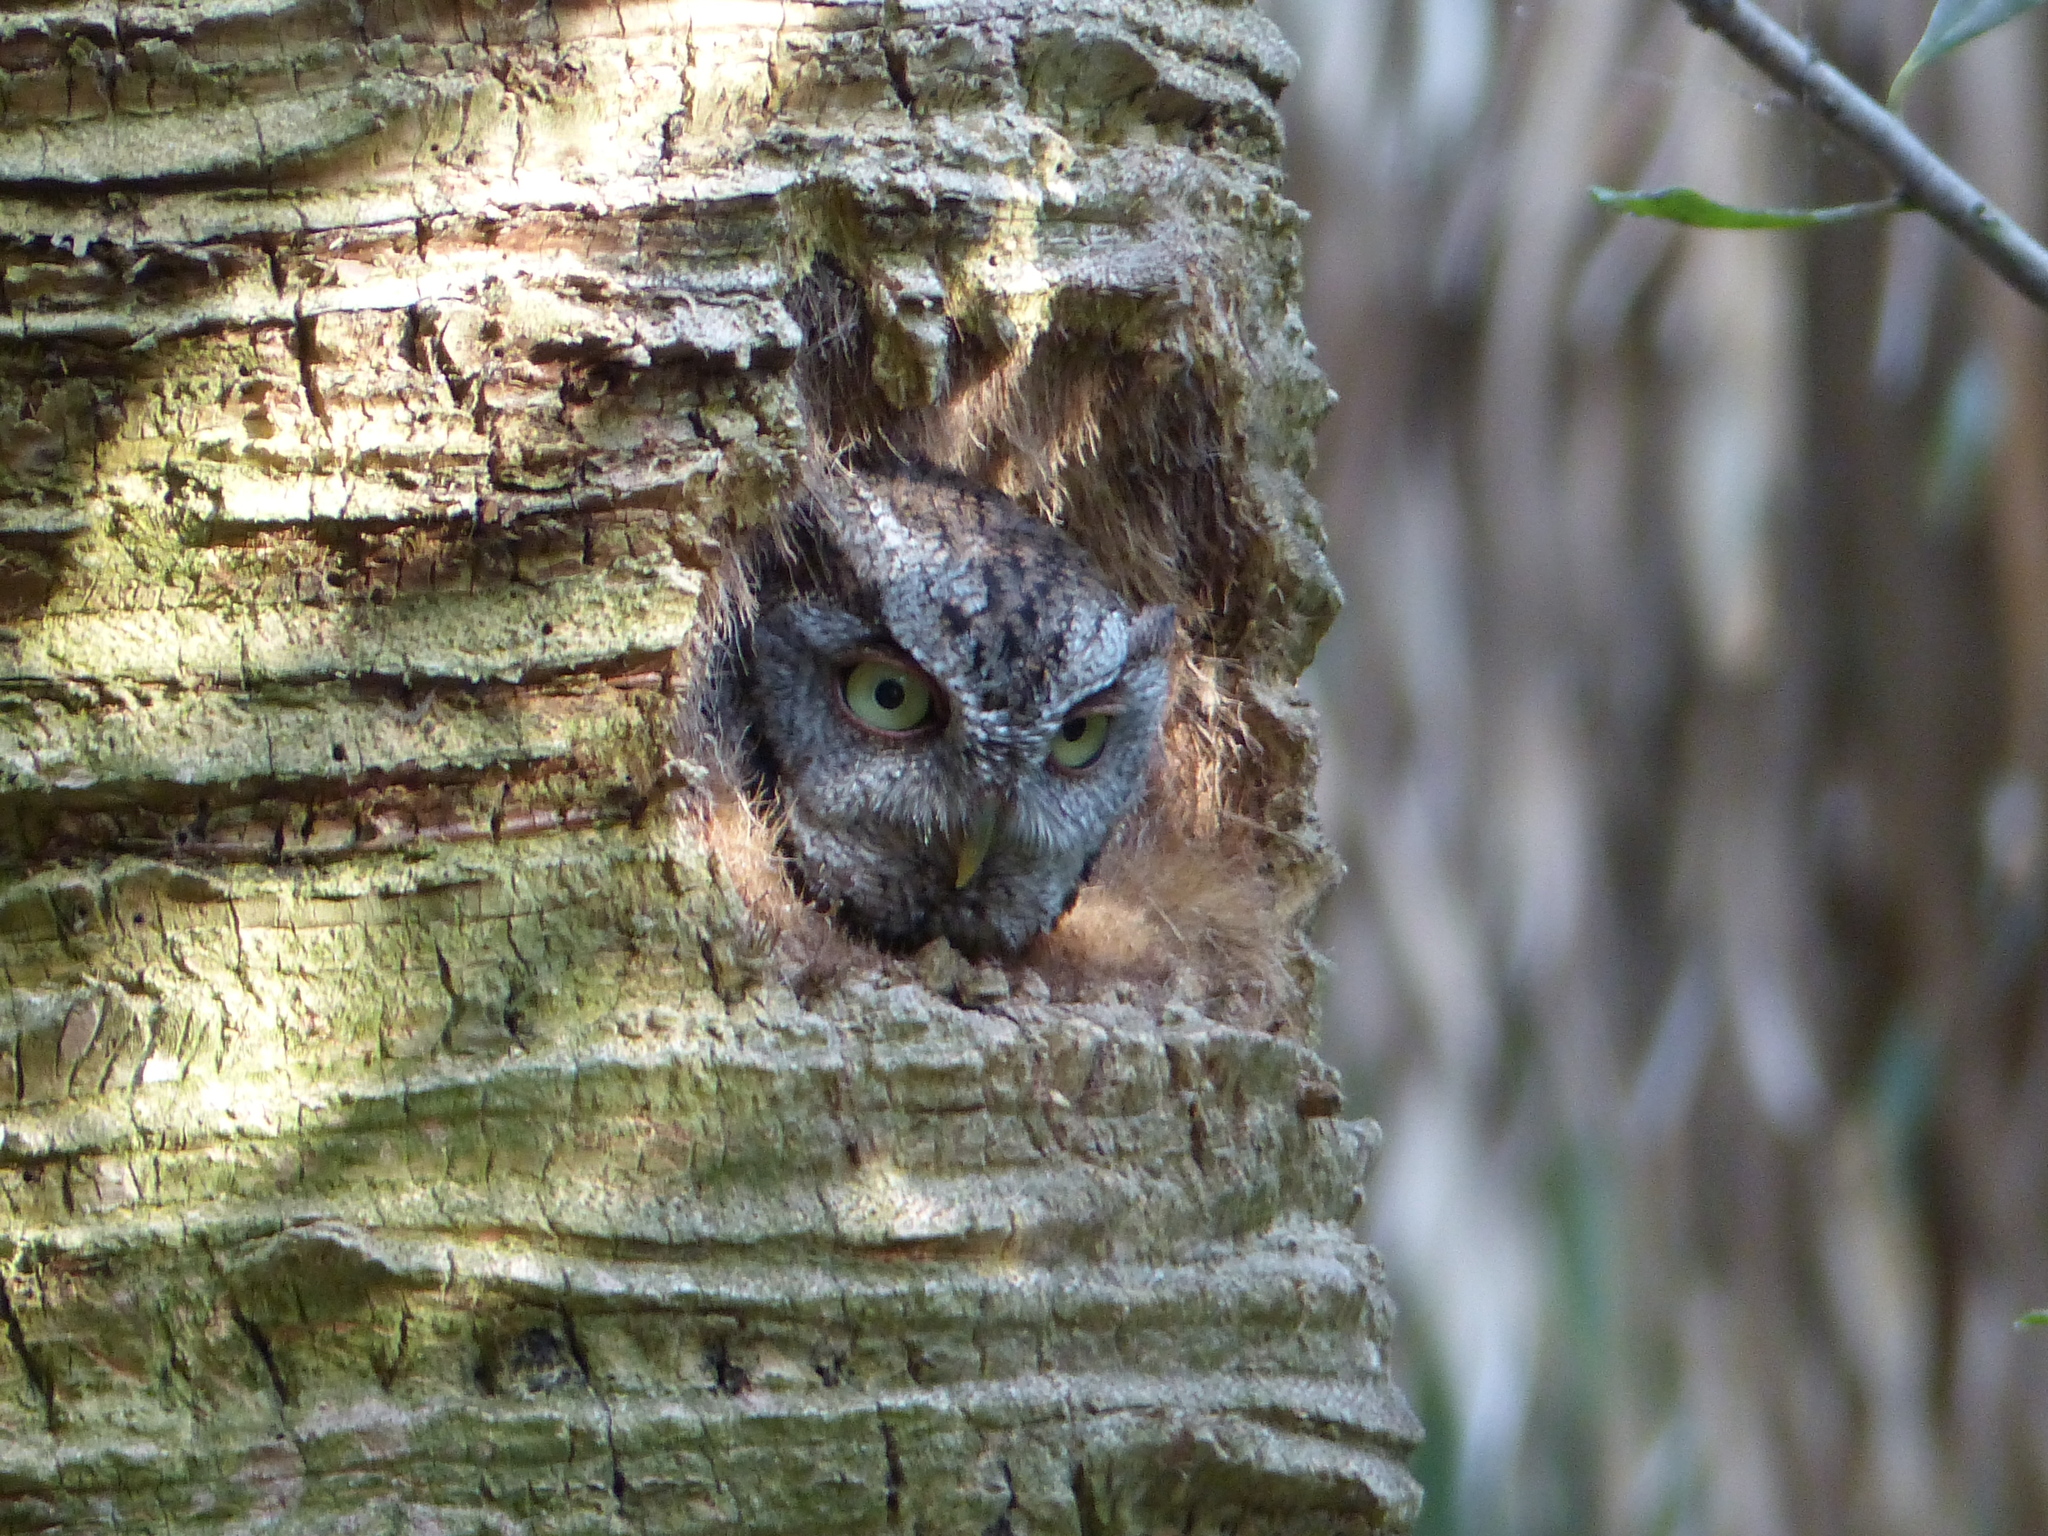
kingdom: Animalia
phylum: Chordata
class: Aves
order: Strigiformes
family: Strigidae
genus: Megascops
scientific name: Megascops asio
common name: Eastern screech-owl
